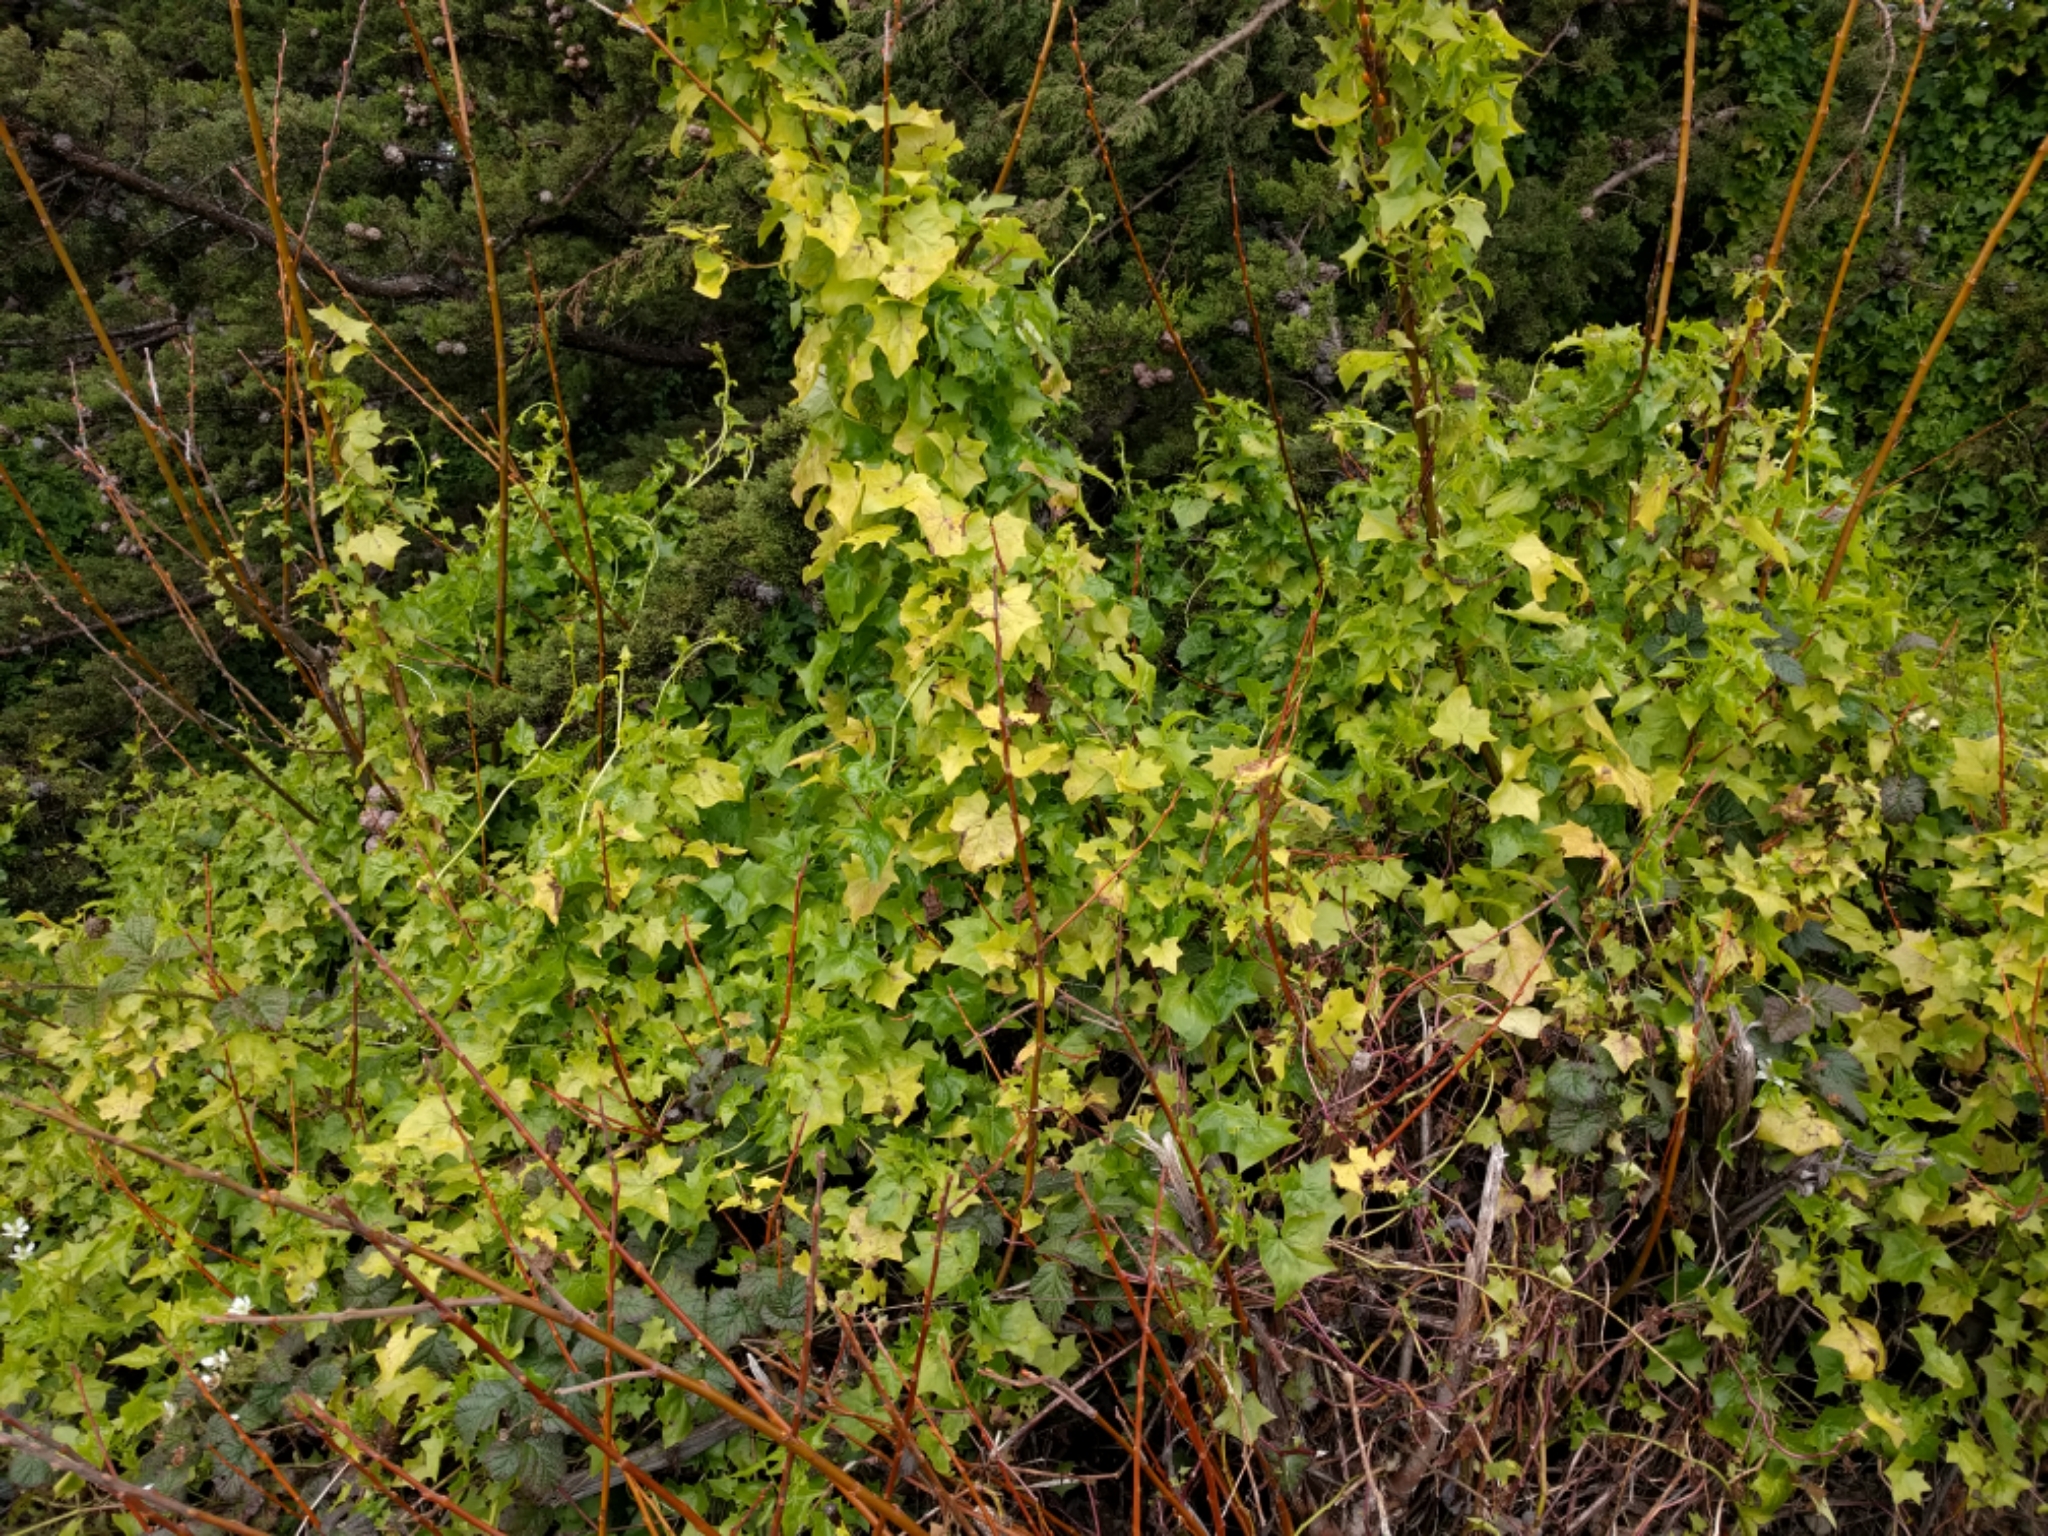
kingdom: Plantae
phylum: Tracheophyta
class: Magnoliopsida
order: Asterales
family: Asteraceae
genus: Delairea
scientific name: Delairea odorata
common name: Cape-ivy
